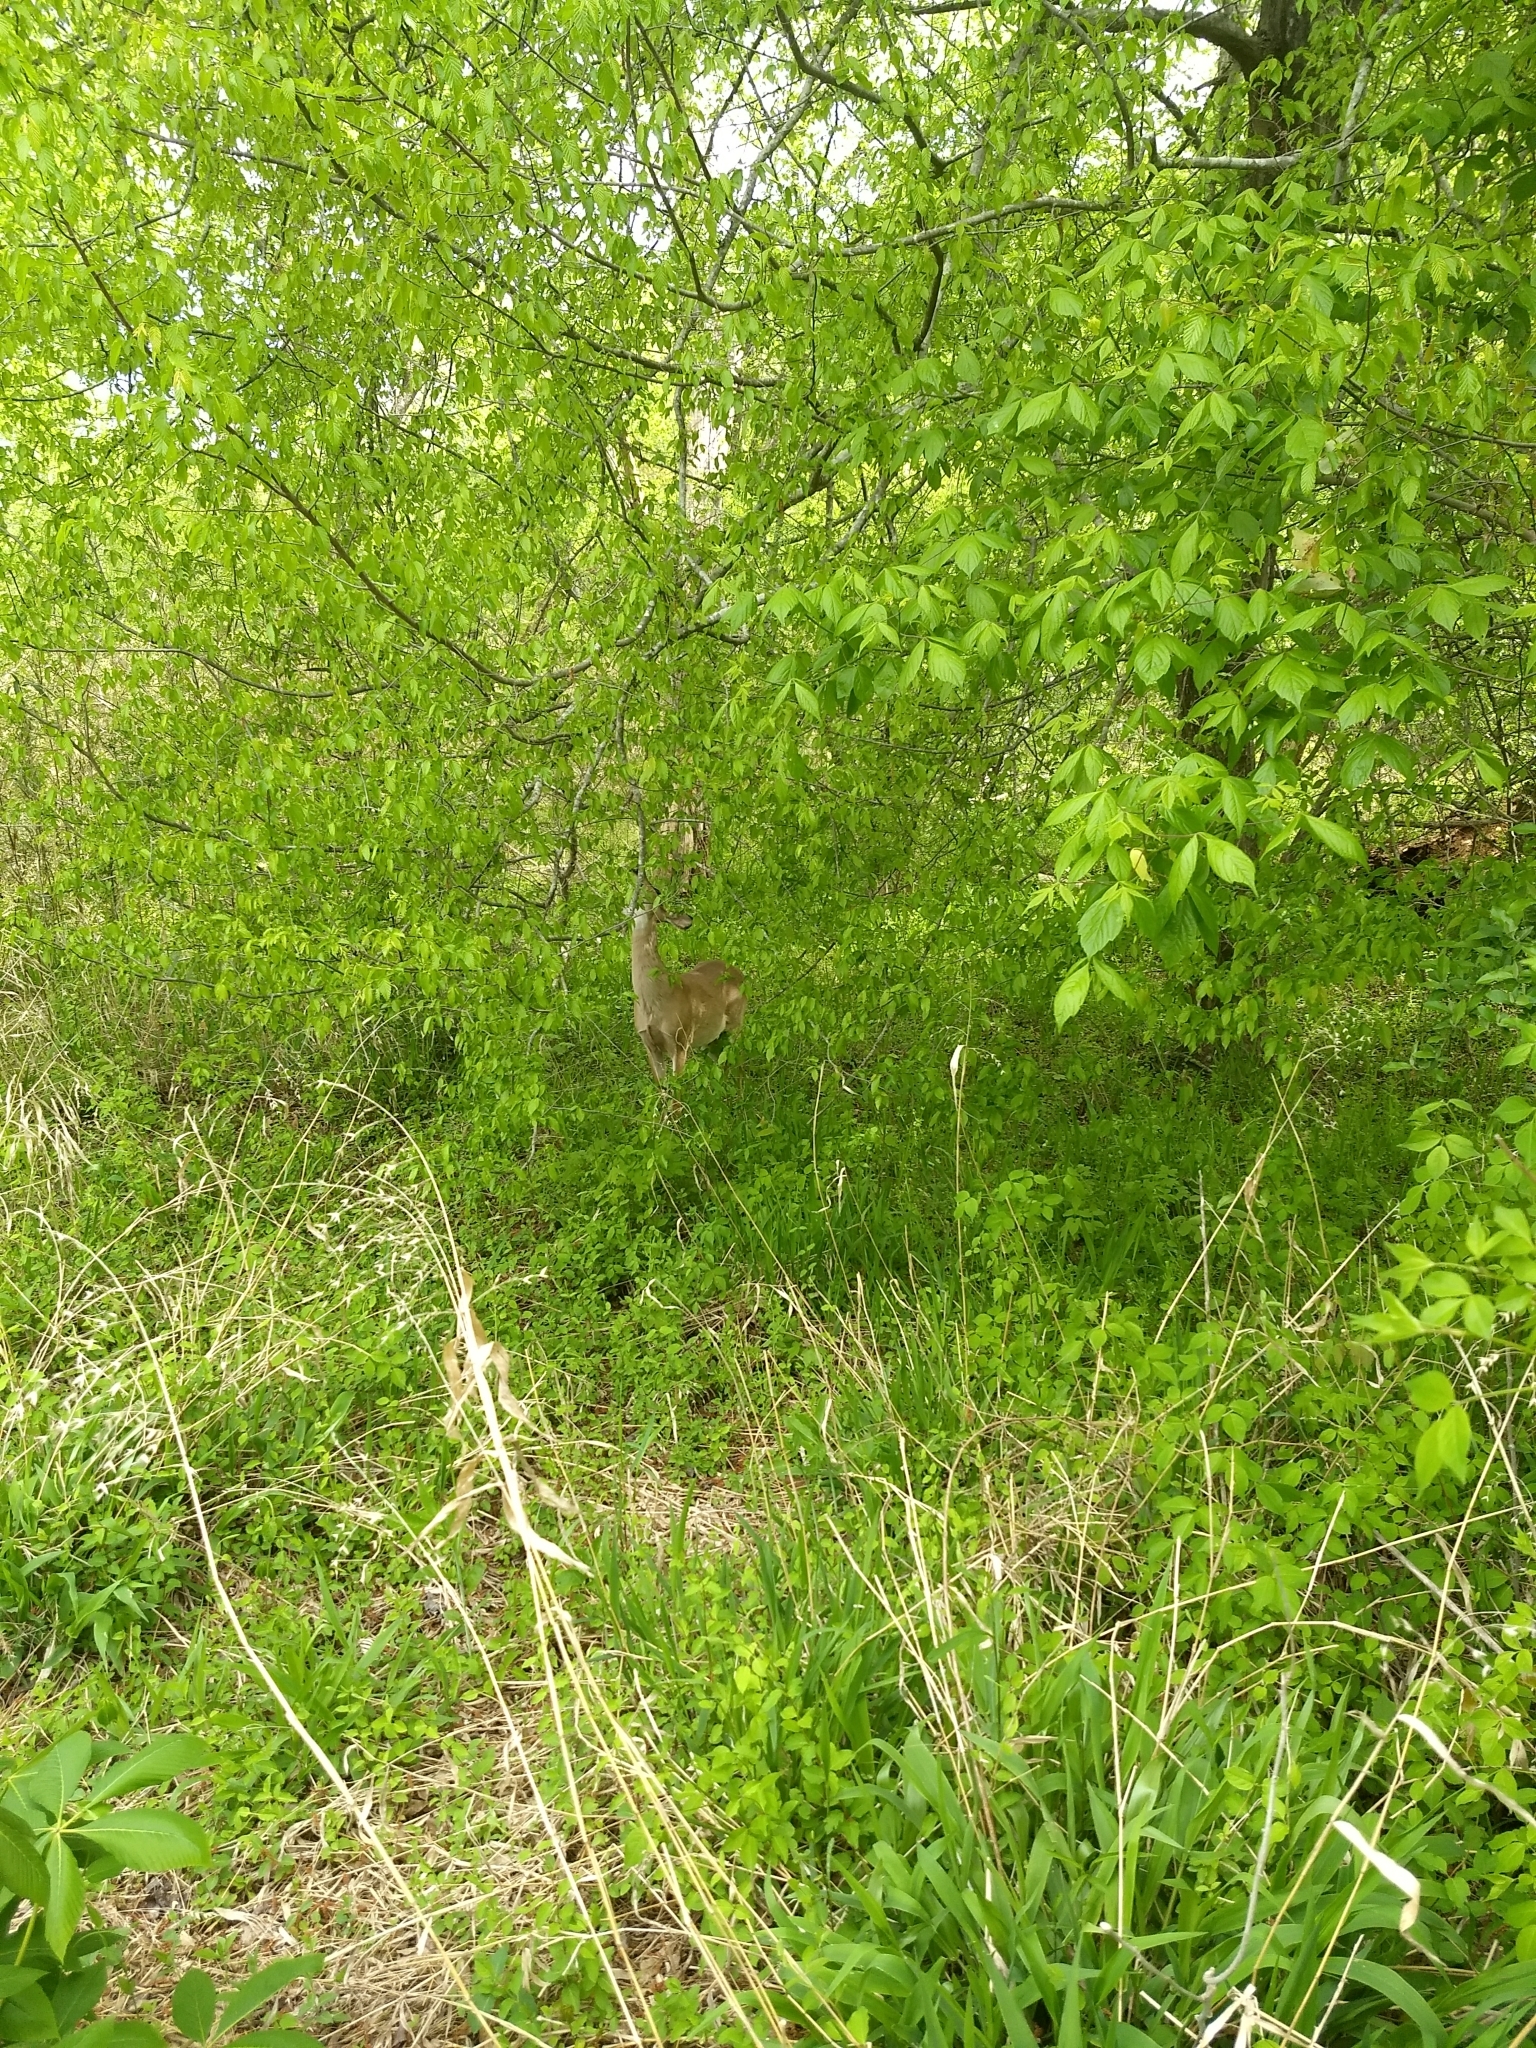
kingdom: Animalia
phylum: Chordata
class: Mammalia
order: Artiodactyla
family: Cervidae
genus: Odocoileus
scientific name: Odocoileus virginianus
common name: White-tailed deer
